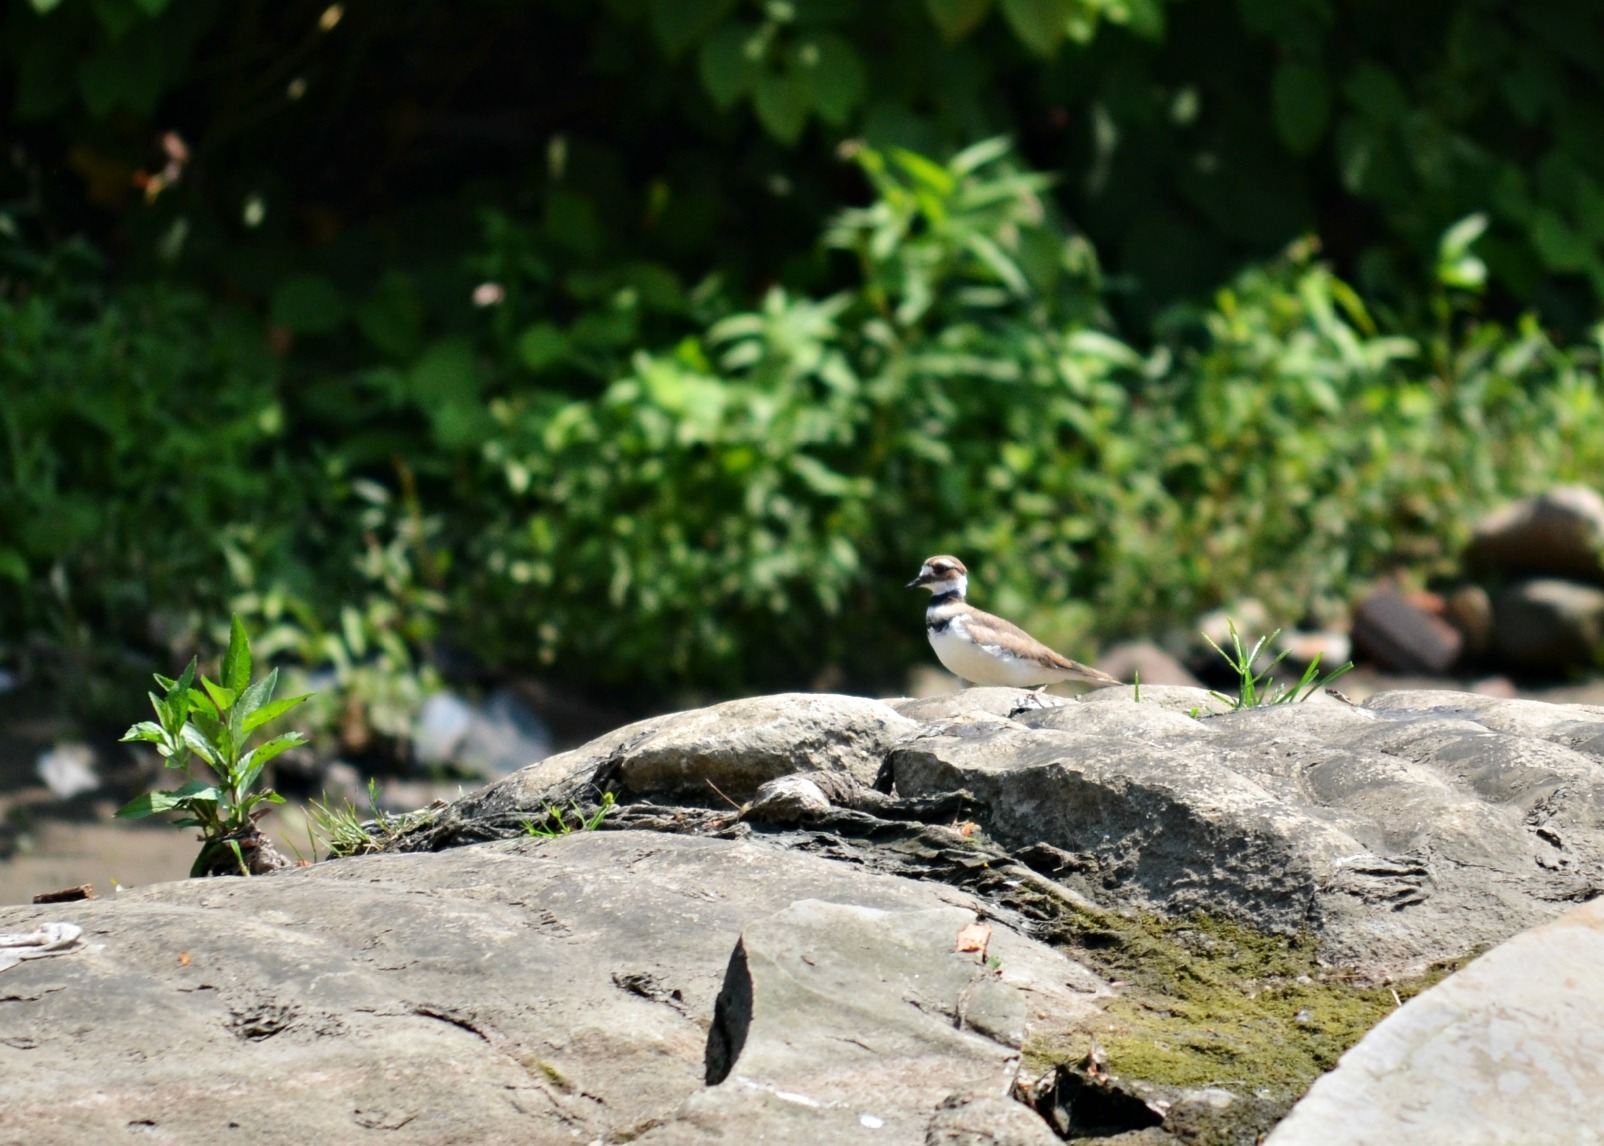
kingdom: Animalia
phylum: Chordata
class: Aves
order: Charadriiformes
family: Charadriidae
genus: Charadrius
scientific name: Charadrius vociferus
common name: Killdeer
